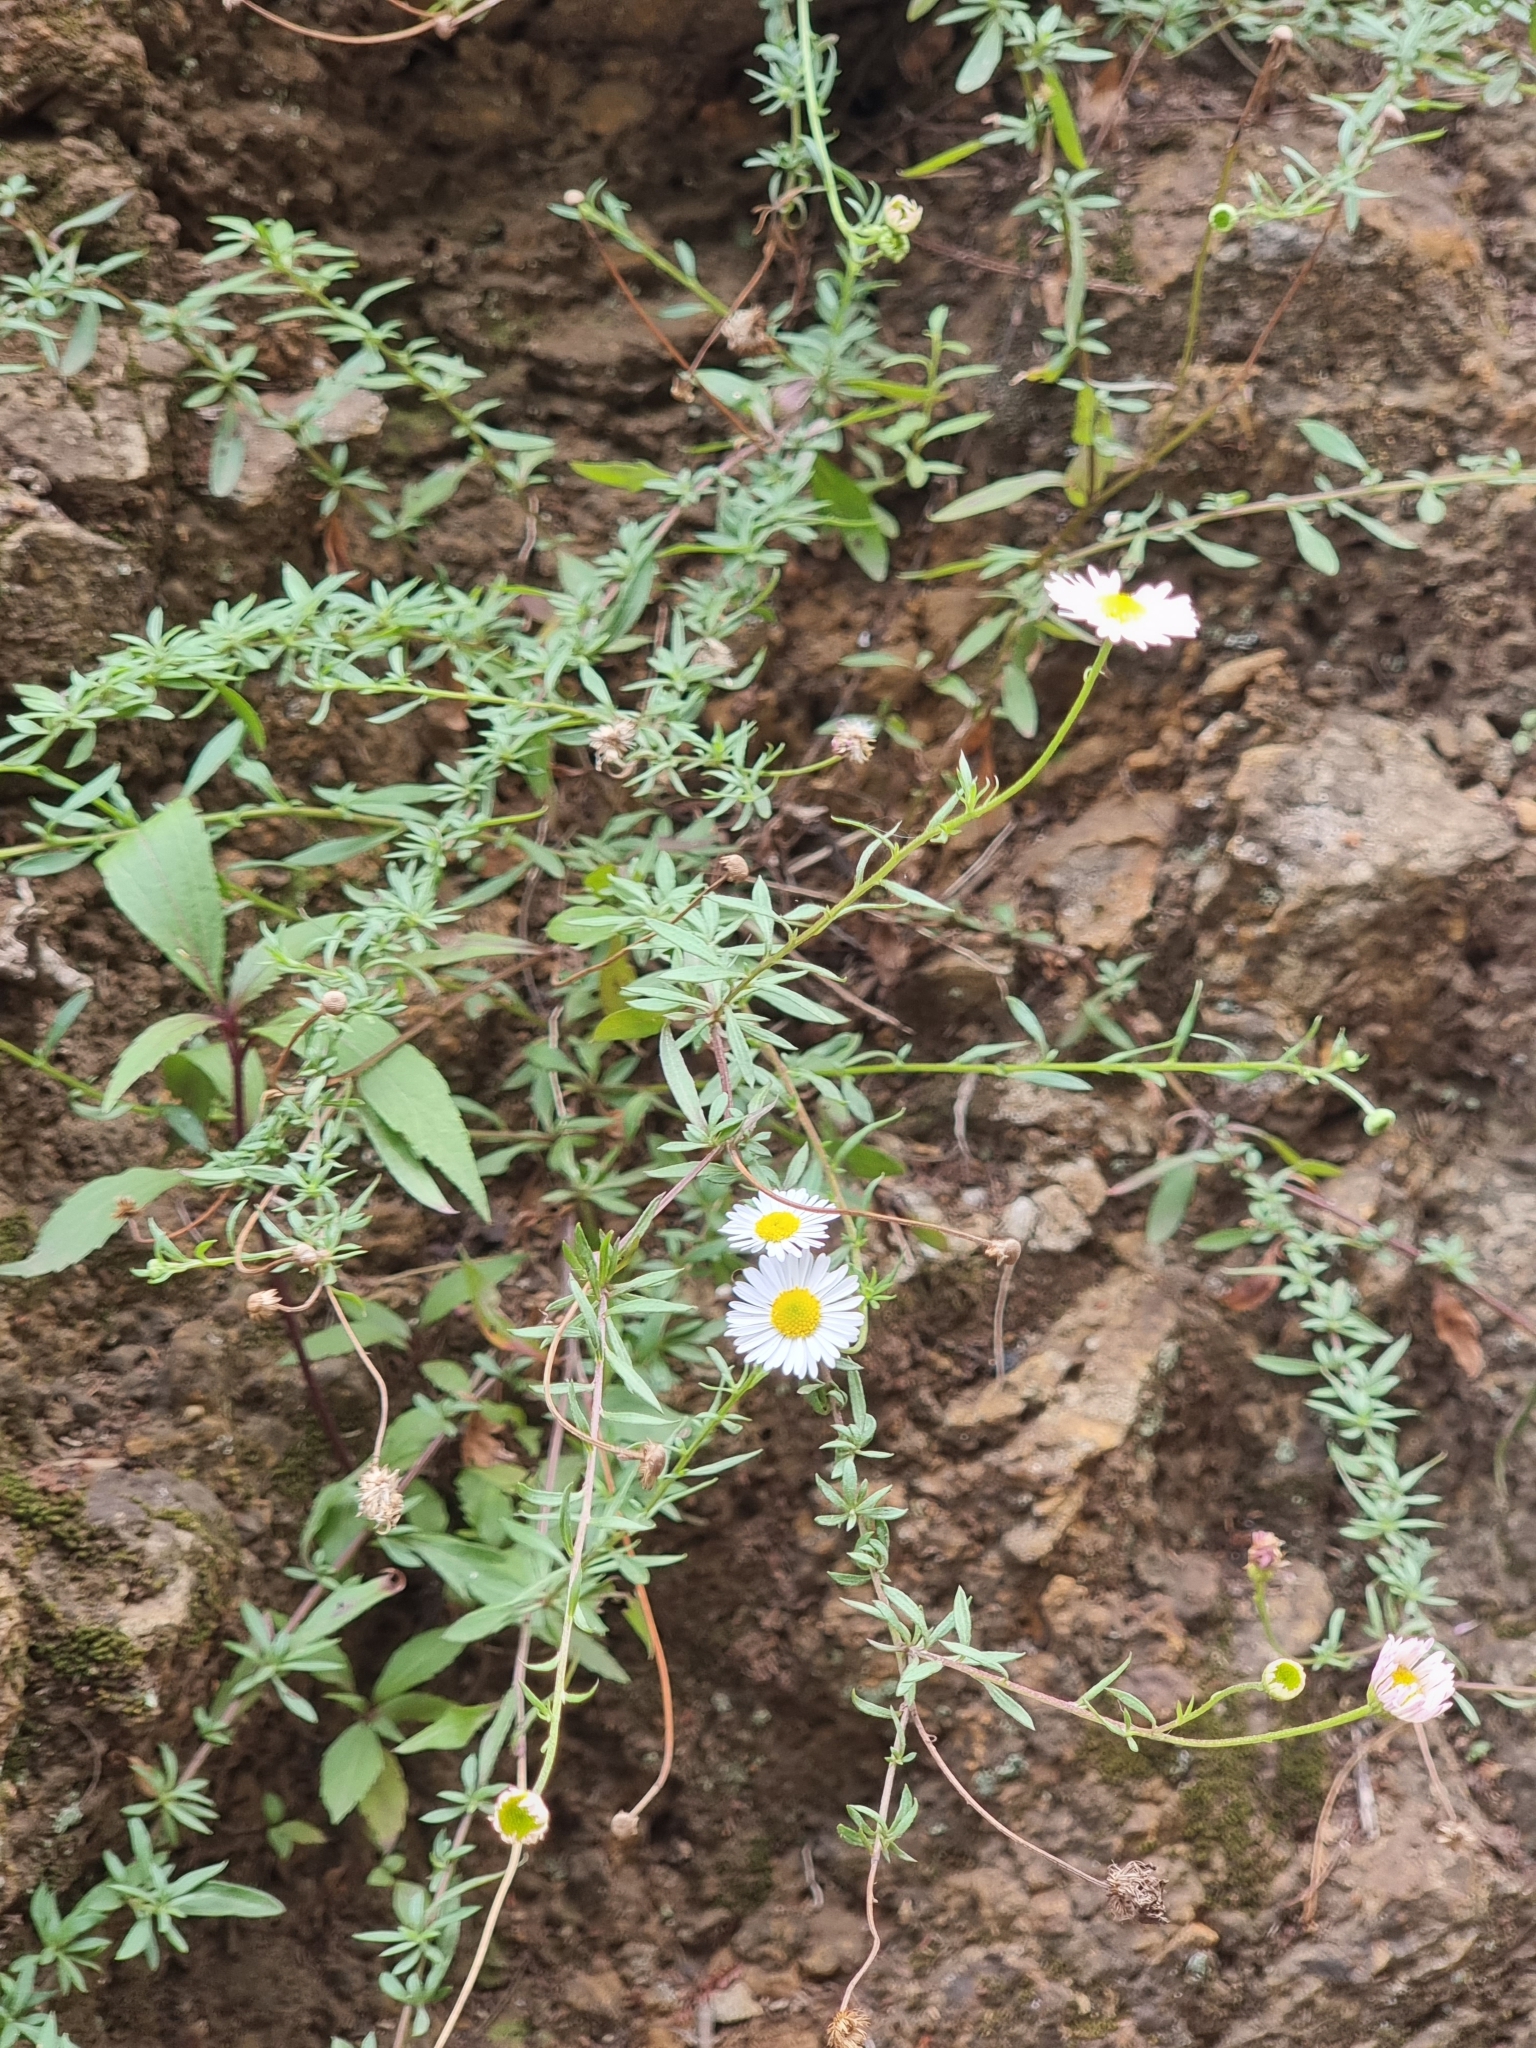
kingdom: Plantae
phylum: Tracheophyta
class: Magnoliopsida
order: Asterales
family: Asteraceae
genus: Erigeron
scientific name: Erigeron karvinskianus
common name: Mexican fleabane
